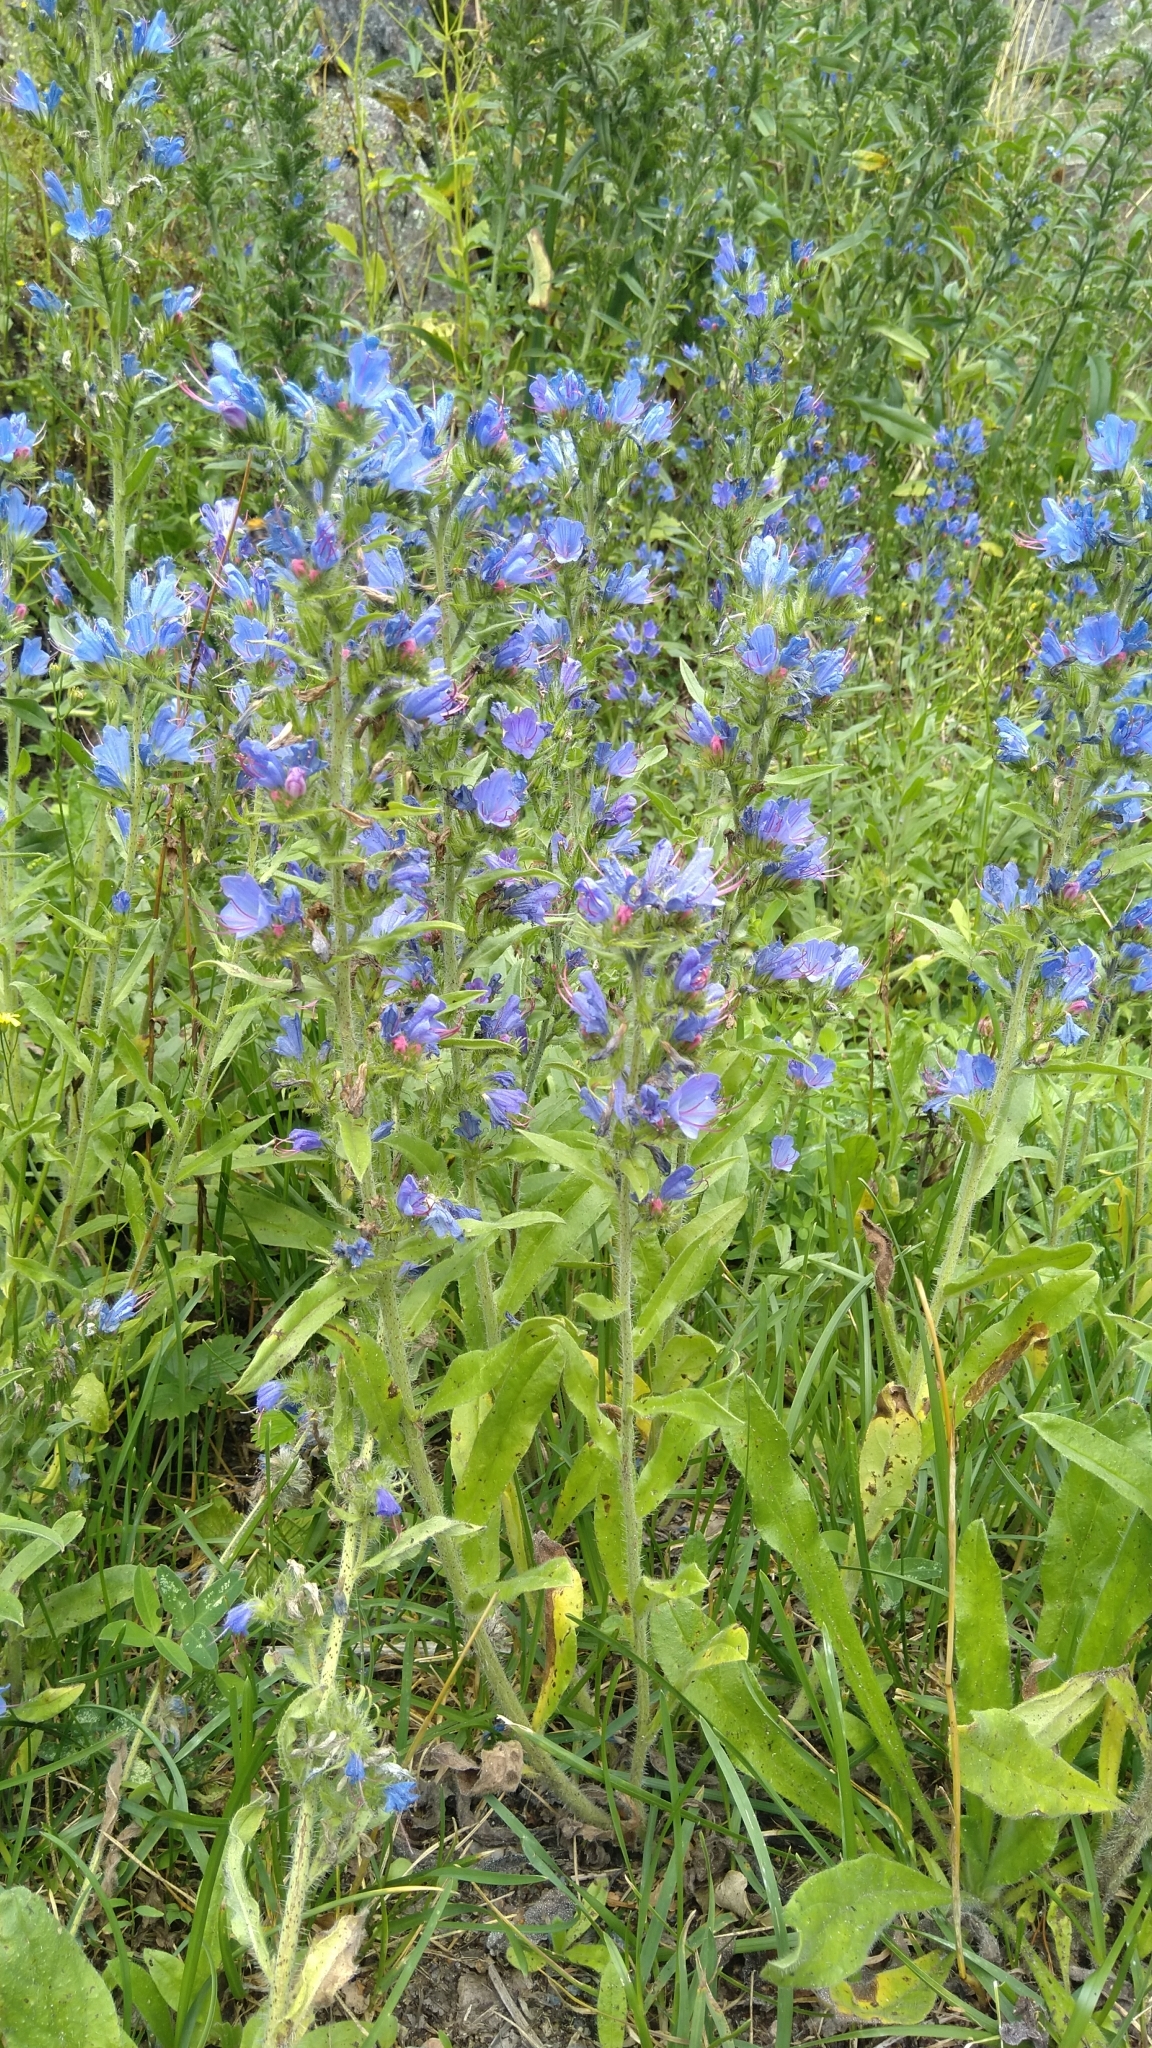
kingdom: Plantae
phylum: Tracheophyta
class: Magnoliopsida
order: Boraginales
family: Boraginaceae
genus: Echium
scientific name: Echium vulgare
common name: Common viper's bugloss
